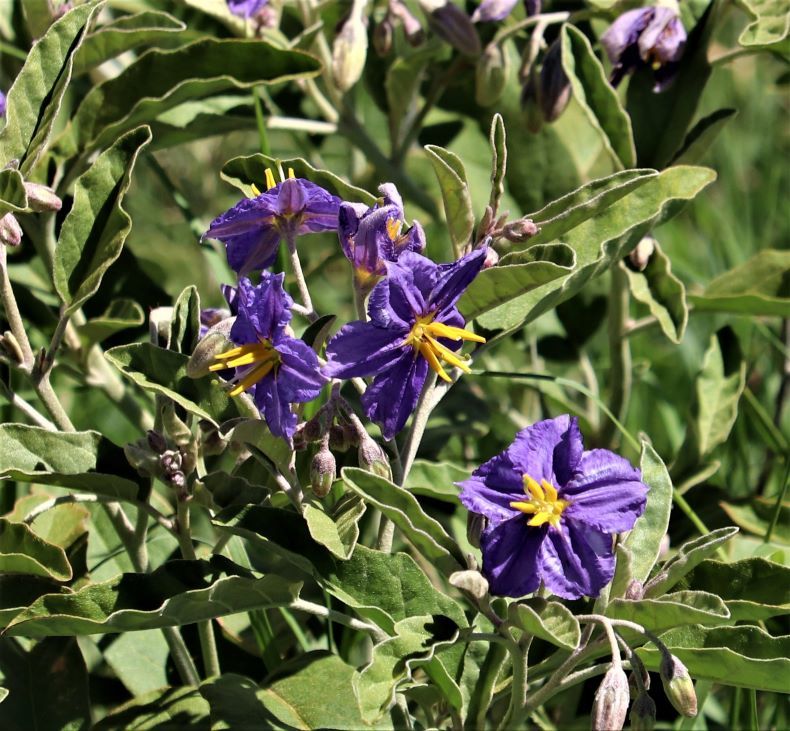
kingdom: Plantae
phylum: Tracheophyta
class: Magnoliopsida
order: Solanales
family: Solanaceae
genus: Solanum
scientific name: Solanum elaeagnifolium
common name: Silverleaf nightshade
